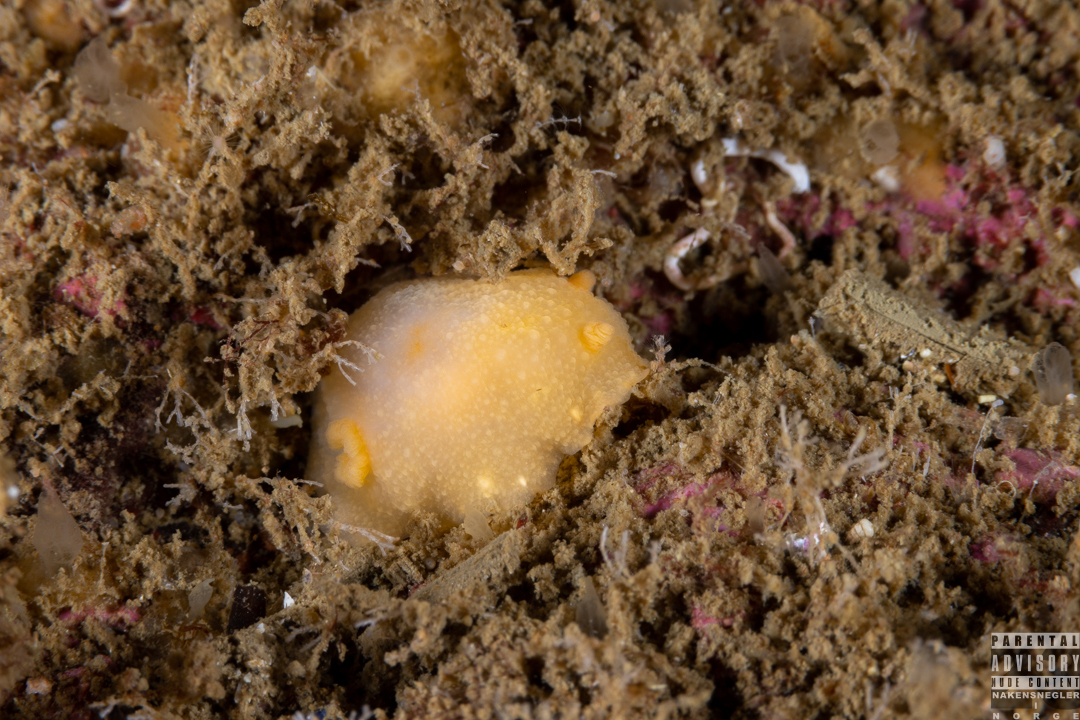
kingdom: Animalia
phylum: Mollusca
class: Gastropoda
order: Nudibranchia
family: Cadlinidae
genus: Cadlina
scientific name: Cadlina laevis
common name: White atlantic cadlina
